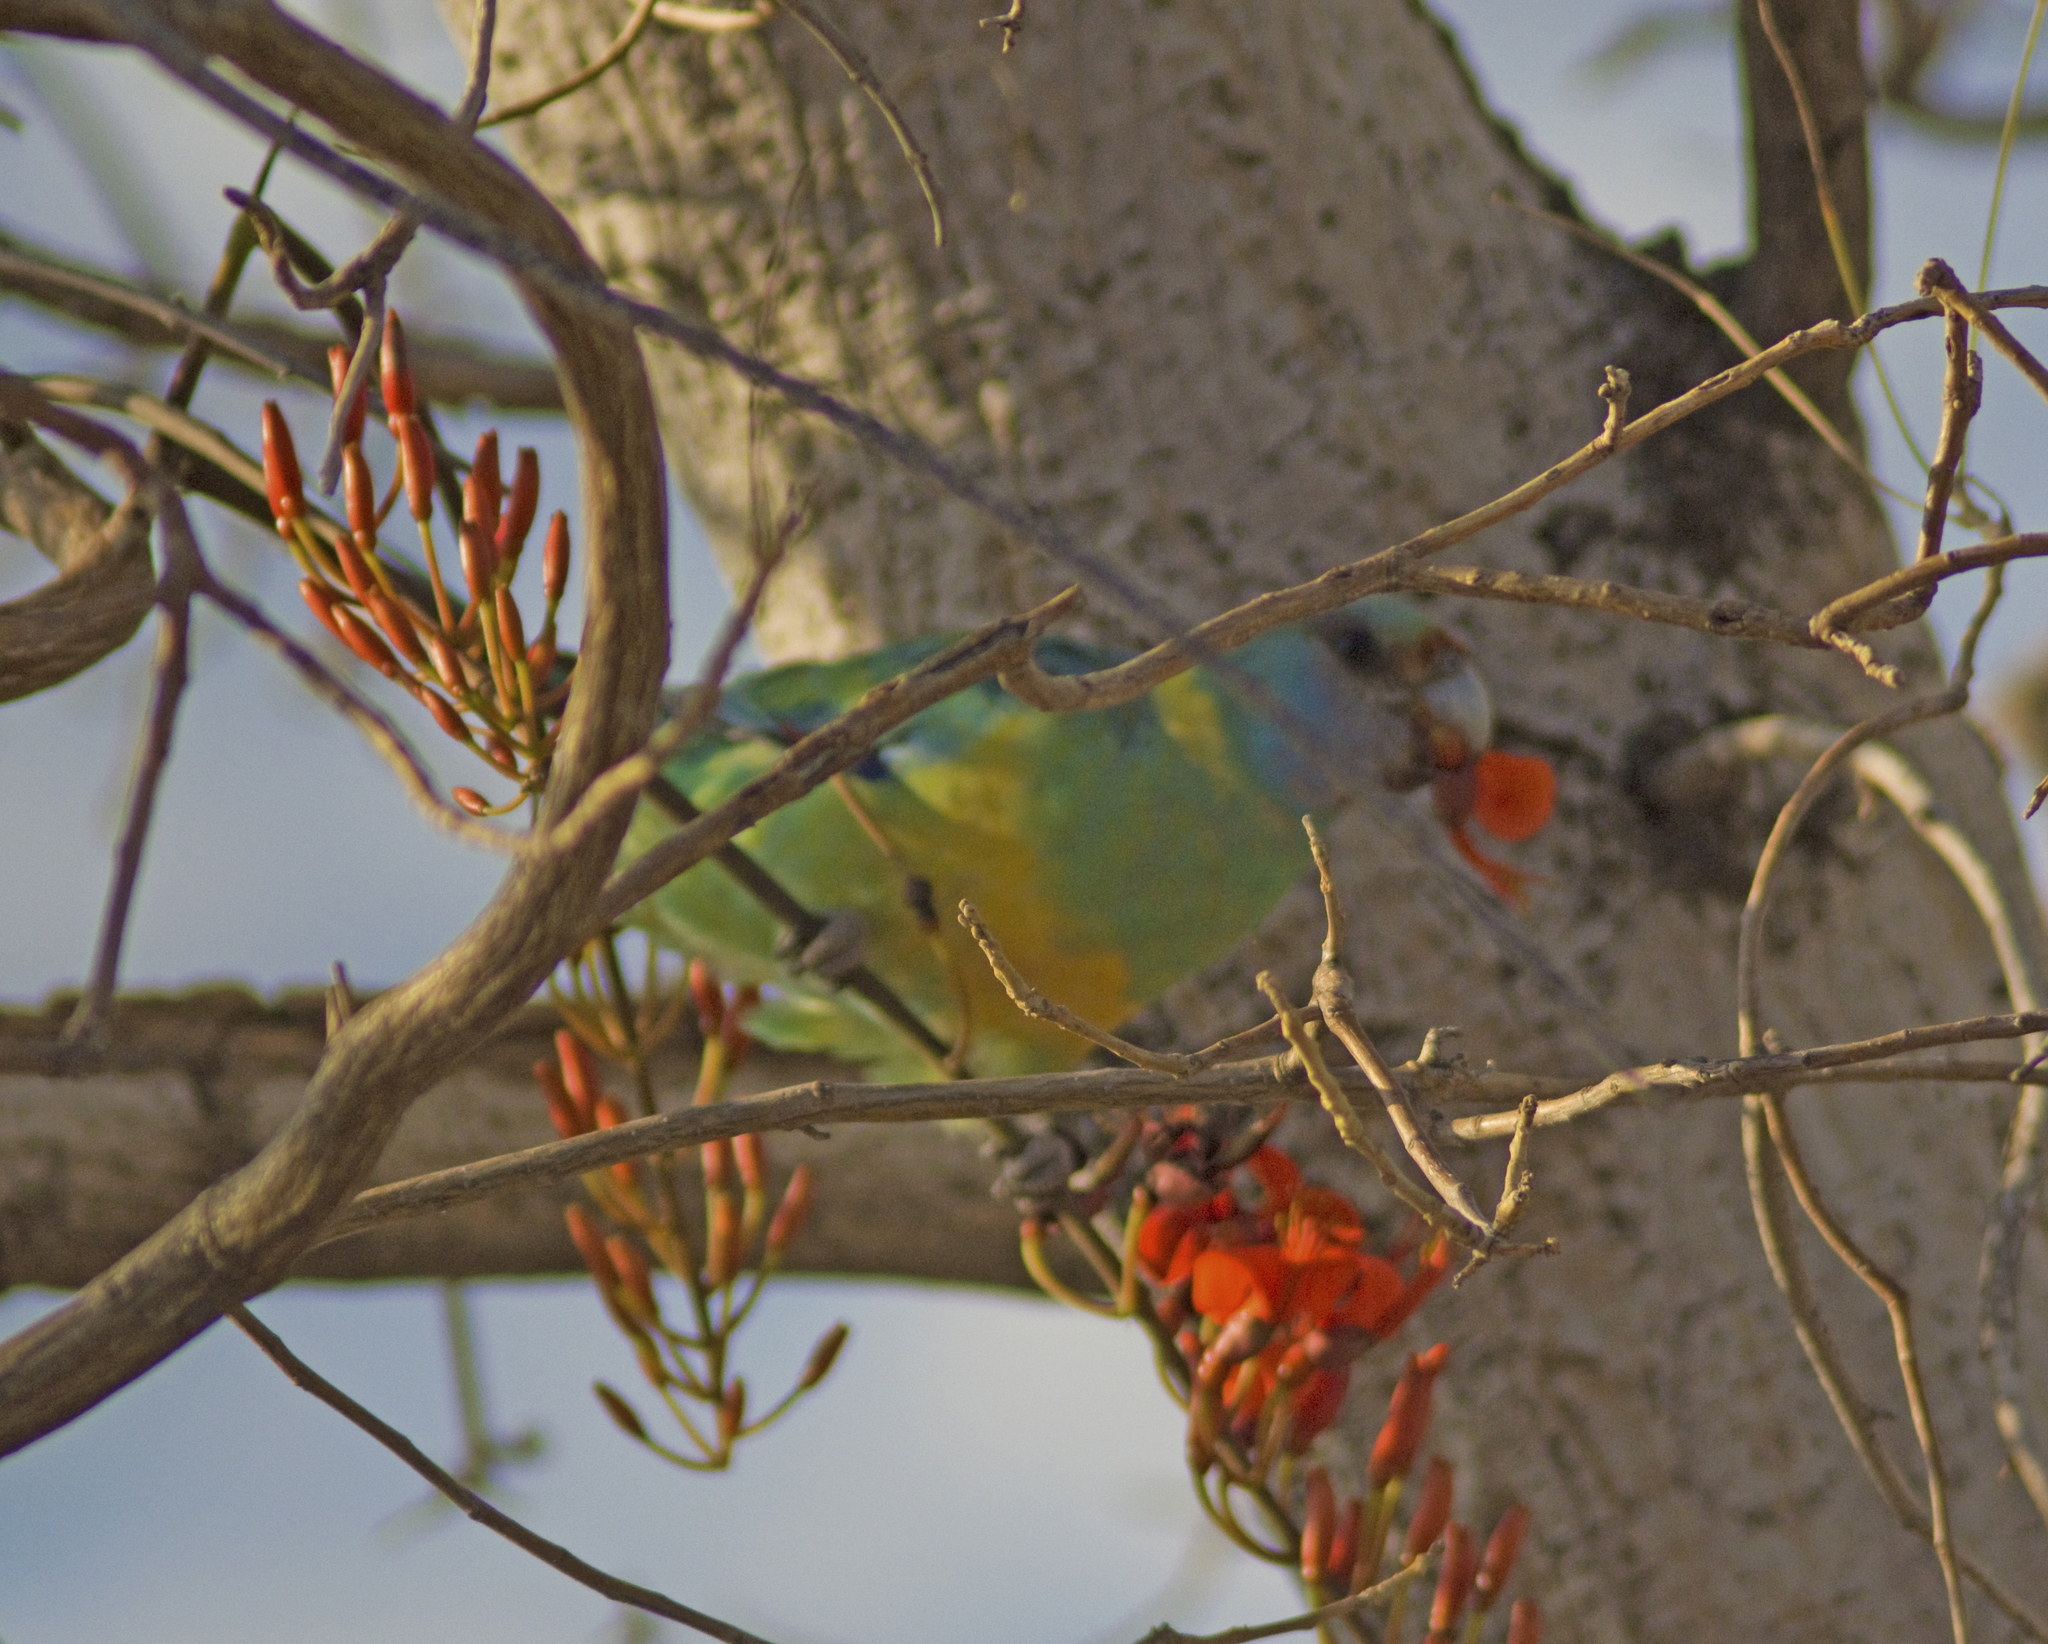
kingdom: Animalia
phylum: Chordata
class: Aves
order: Psittaciformes
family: Psittacidae
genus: Barnardius
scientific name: Barnardius zonarius
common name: Australian ringneck
